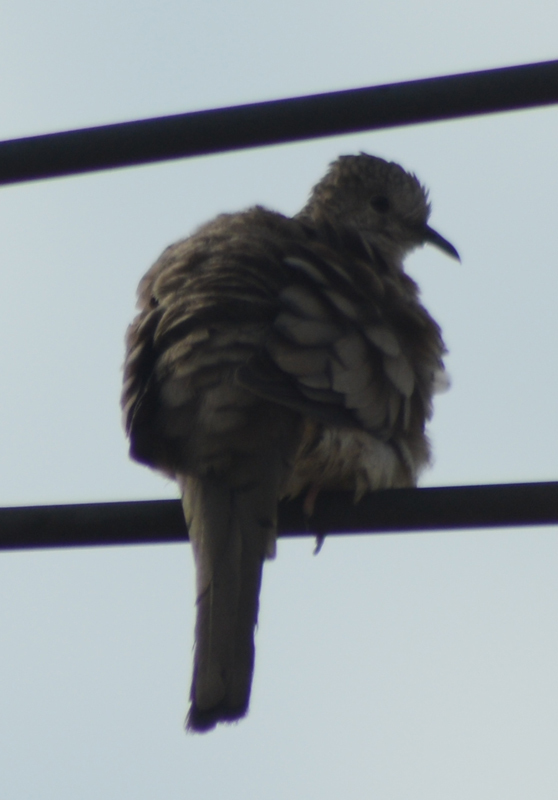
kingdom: Animalia
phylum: Chordata
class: Aves
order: Columbiformes
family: Columbidae
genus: Columbina
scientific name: Columbina inca
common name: Inca dove
